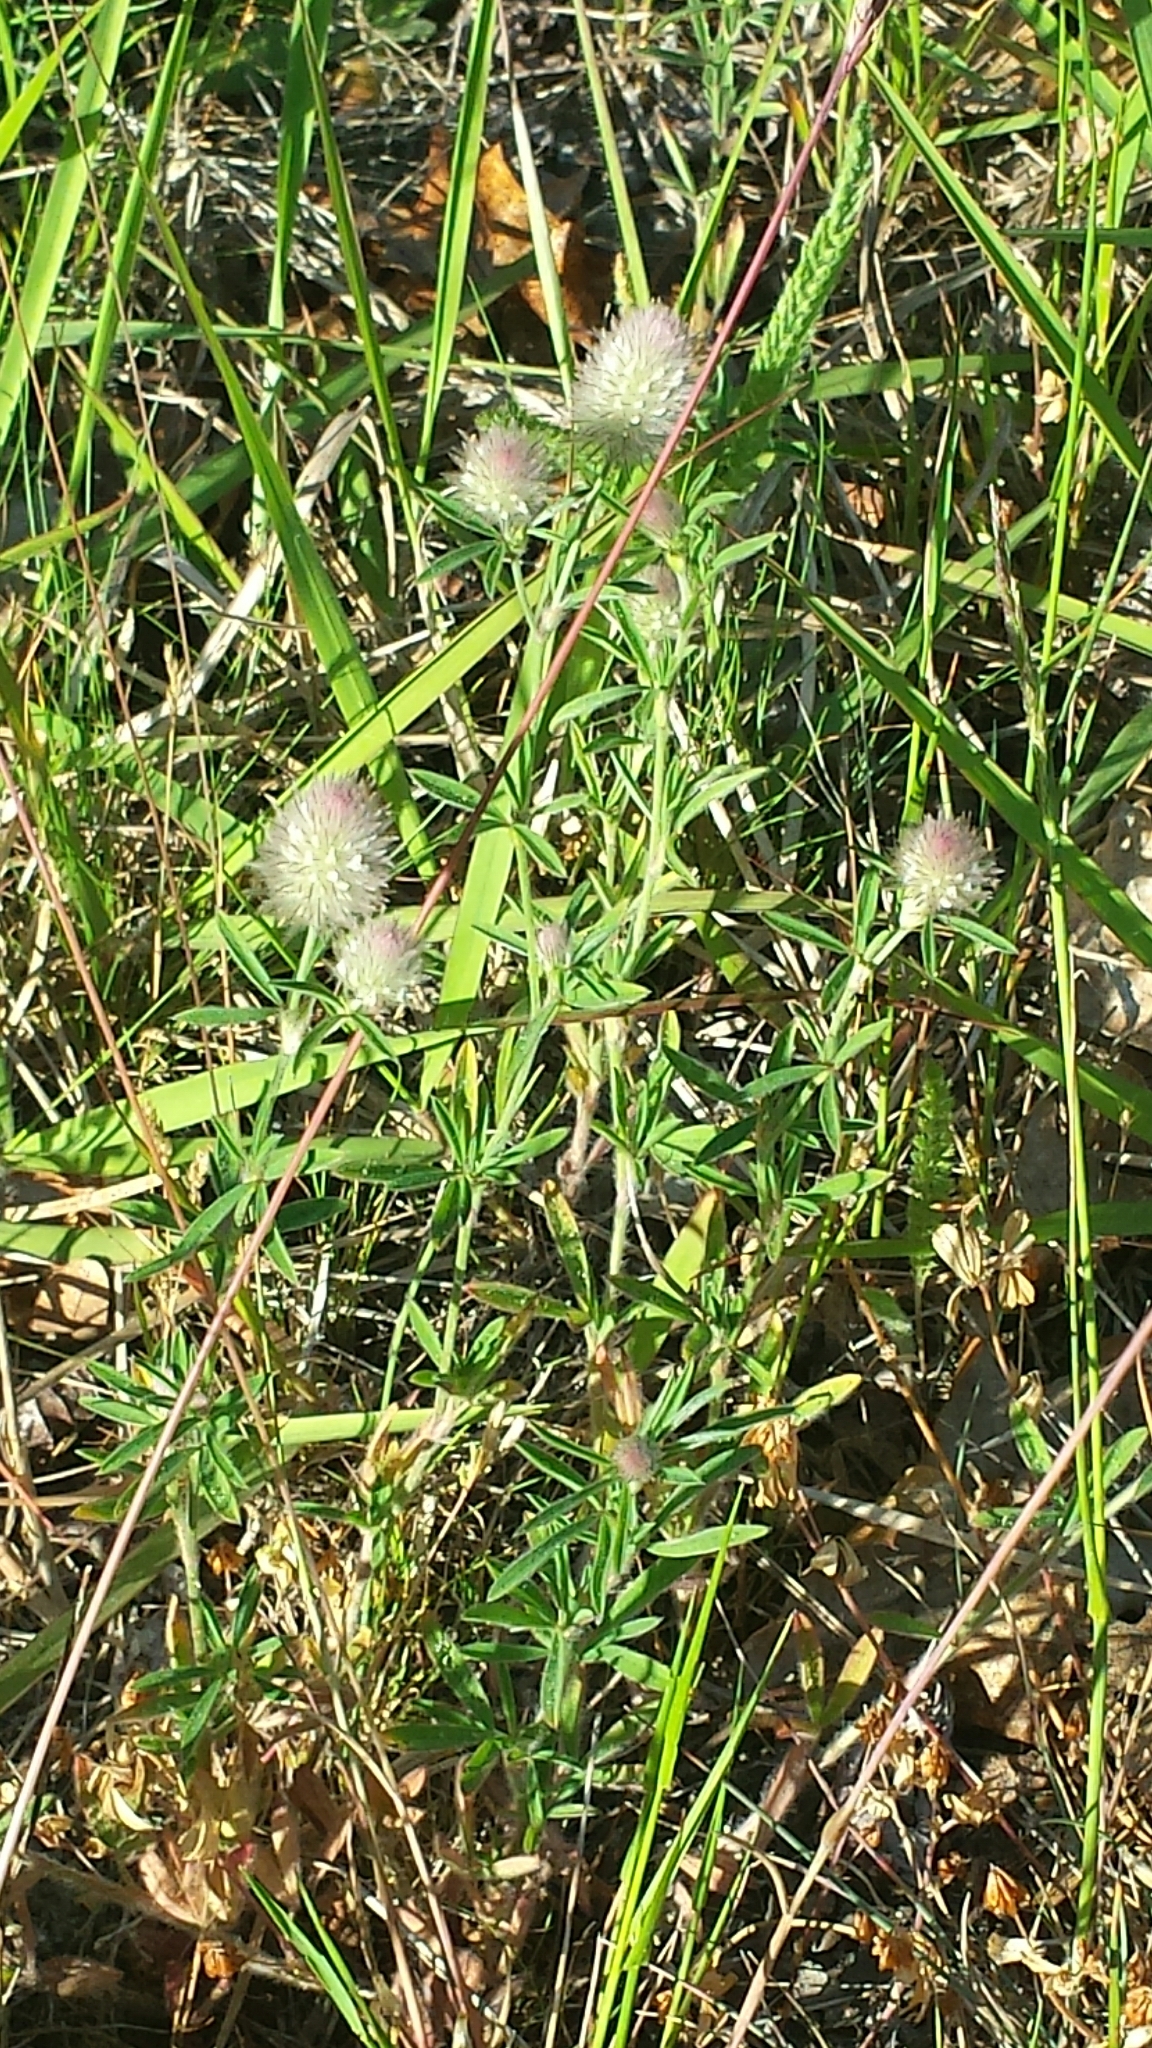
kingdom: Plantae
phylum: Tracheophyta
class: Magnoliopsida
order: Fabales
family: Fabaceae
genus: Trifolium
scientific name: Trifolium arvense
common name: Hare's-foot clover
